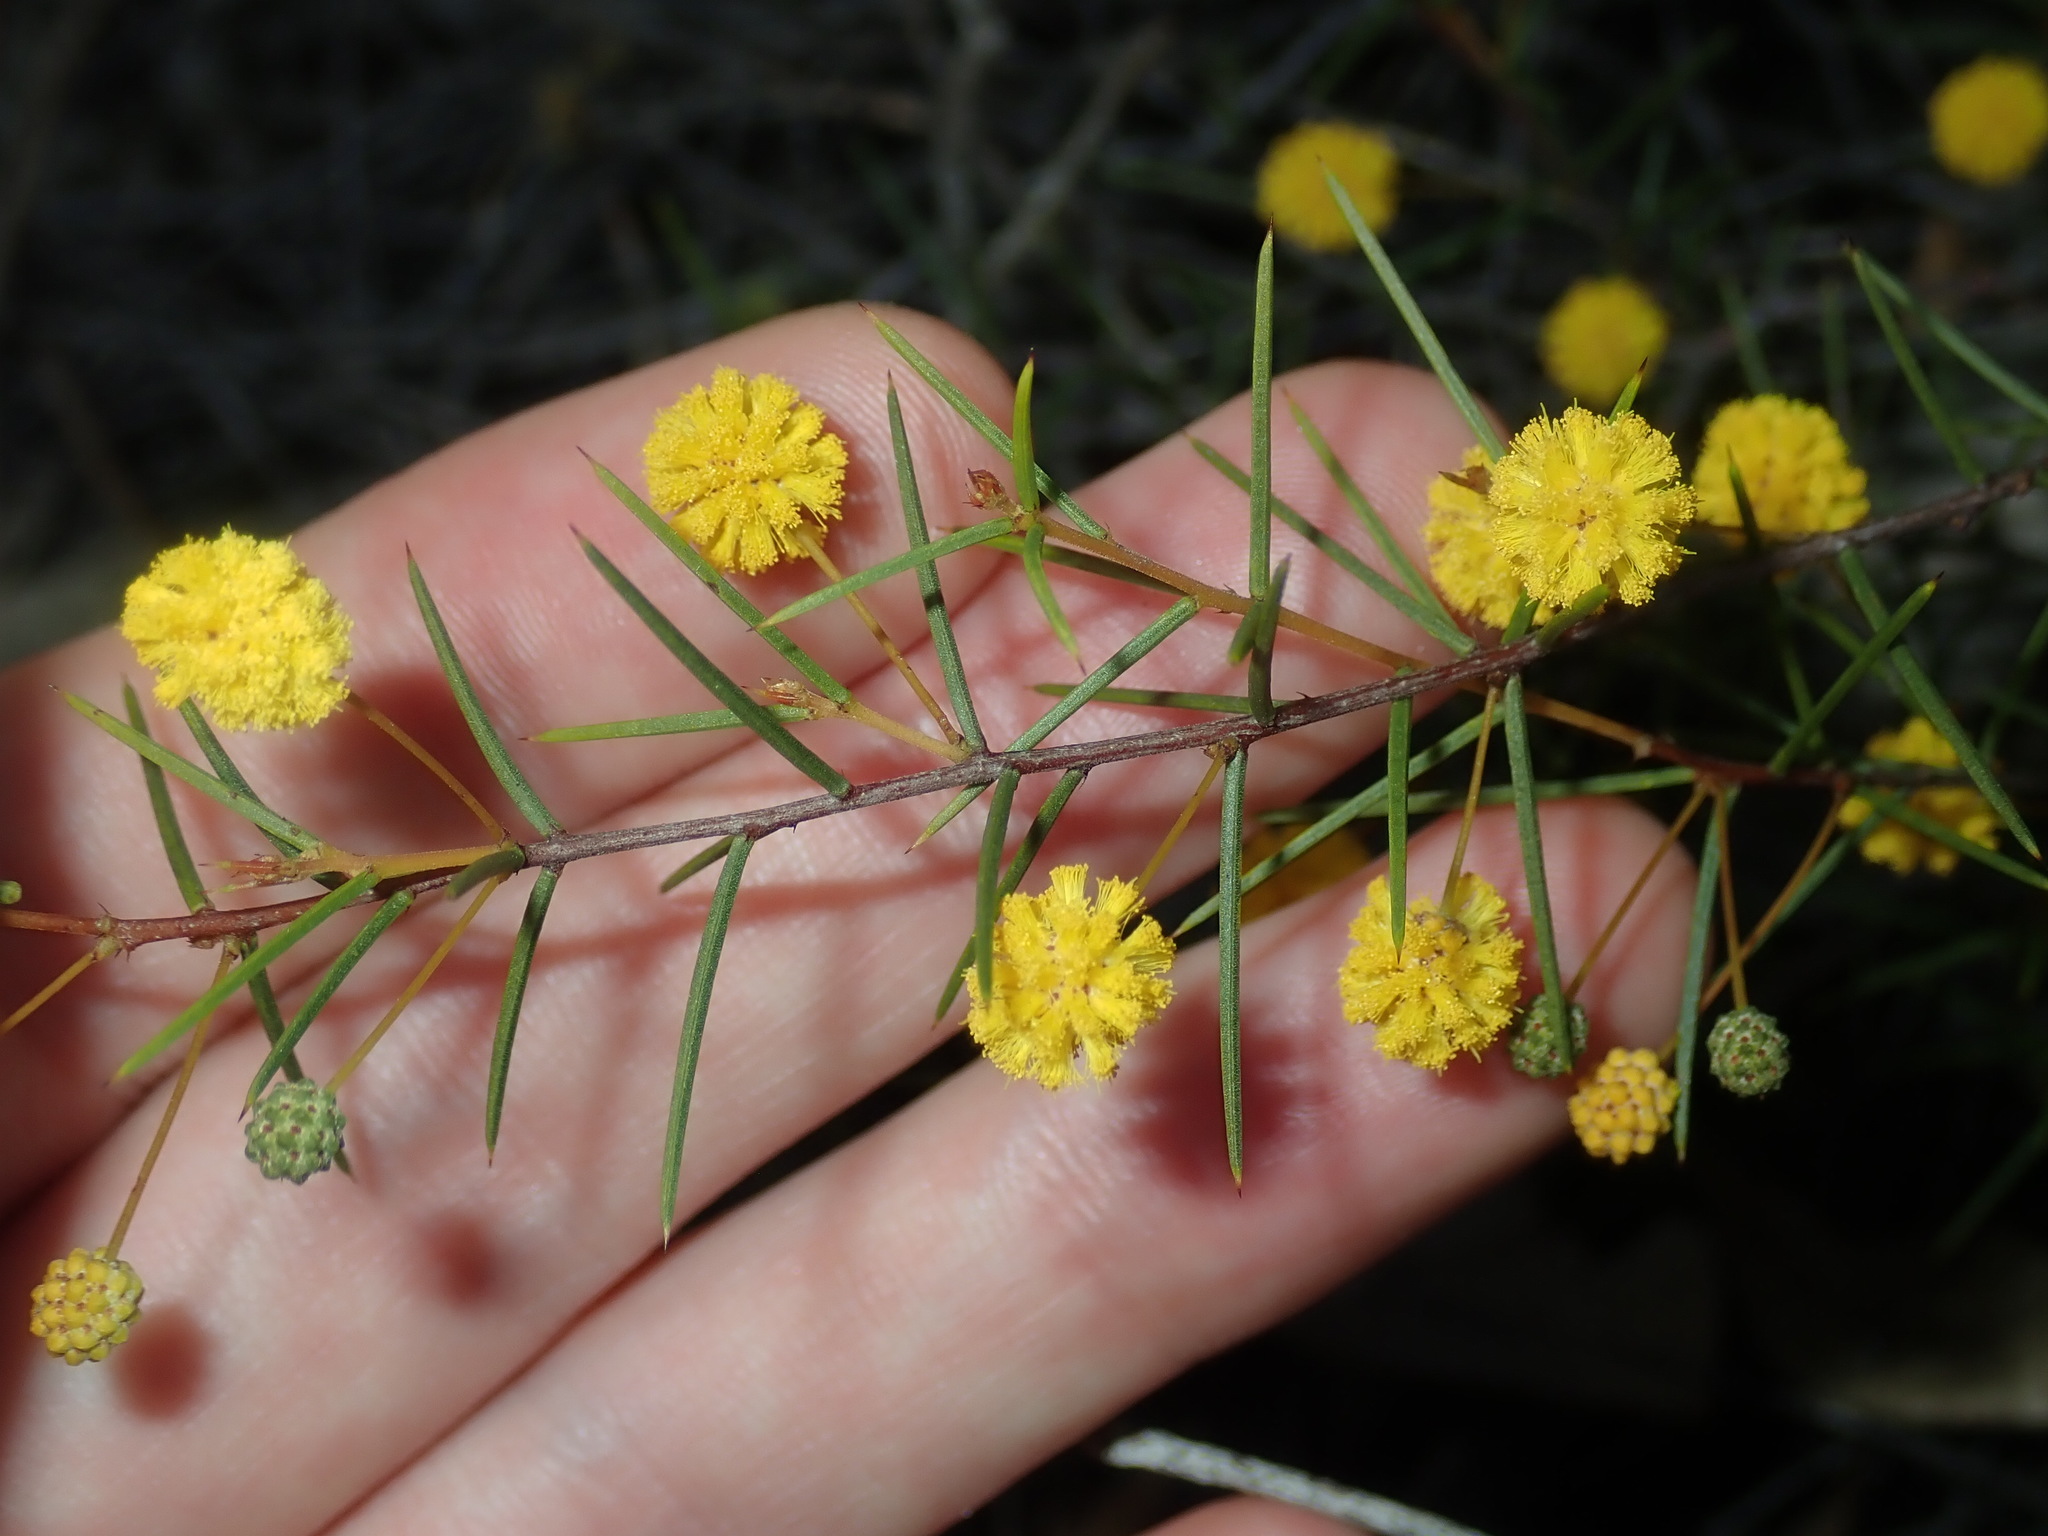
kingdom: Plantae
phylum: Tracheophyta
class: Magnoliopsida
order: Fabales
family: Fabaceae
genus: Acacia
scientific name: Acacia brownii
